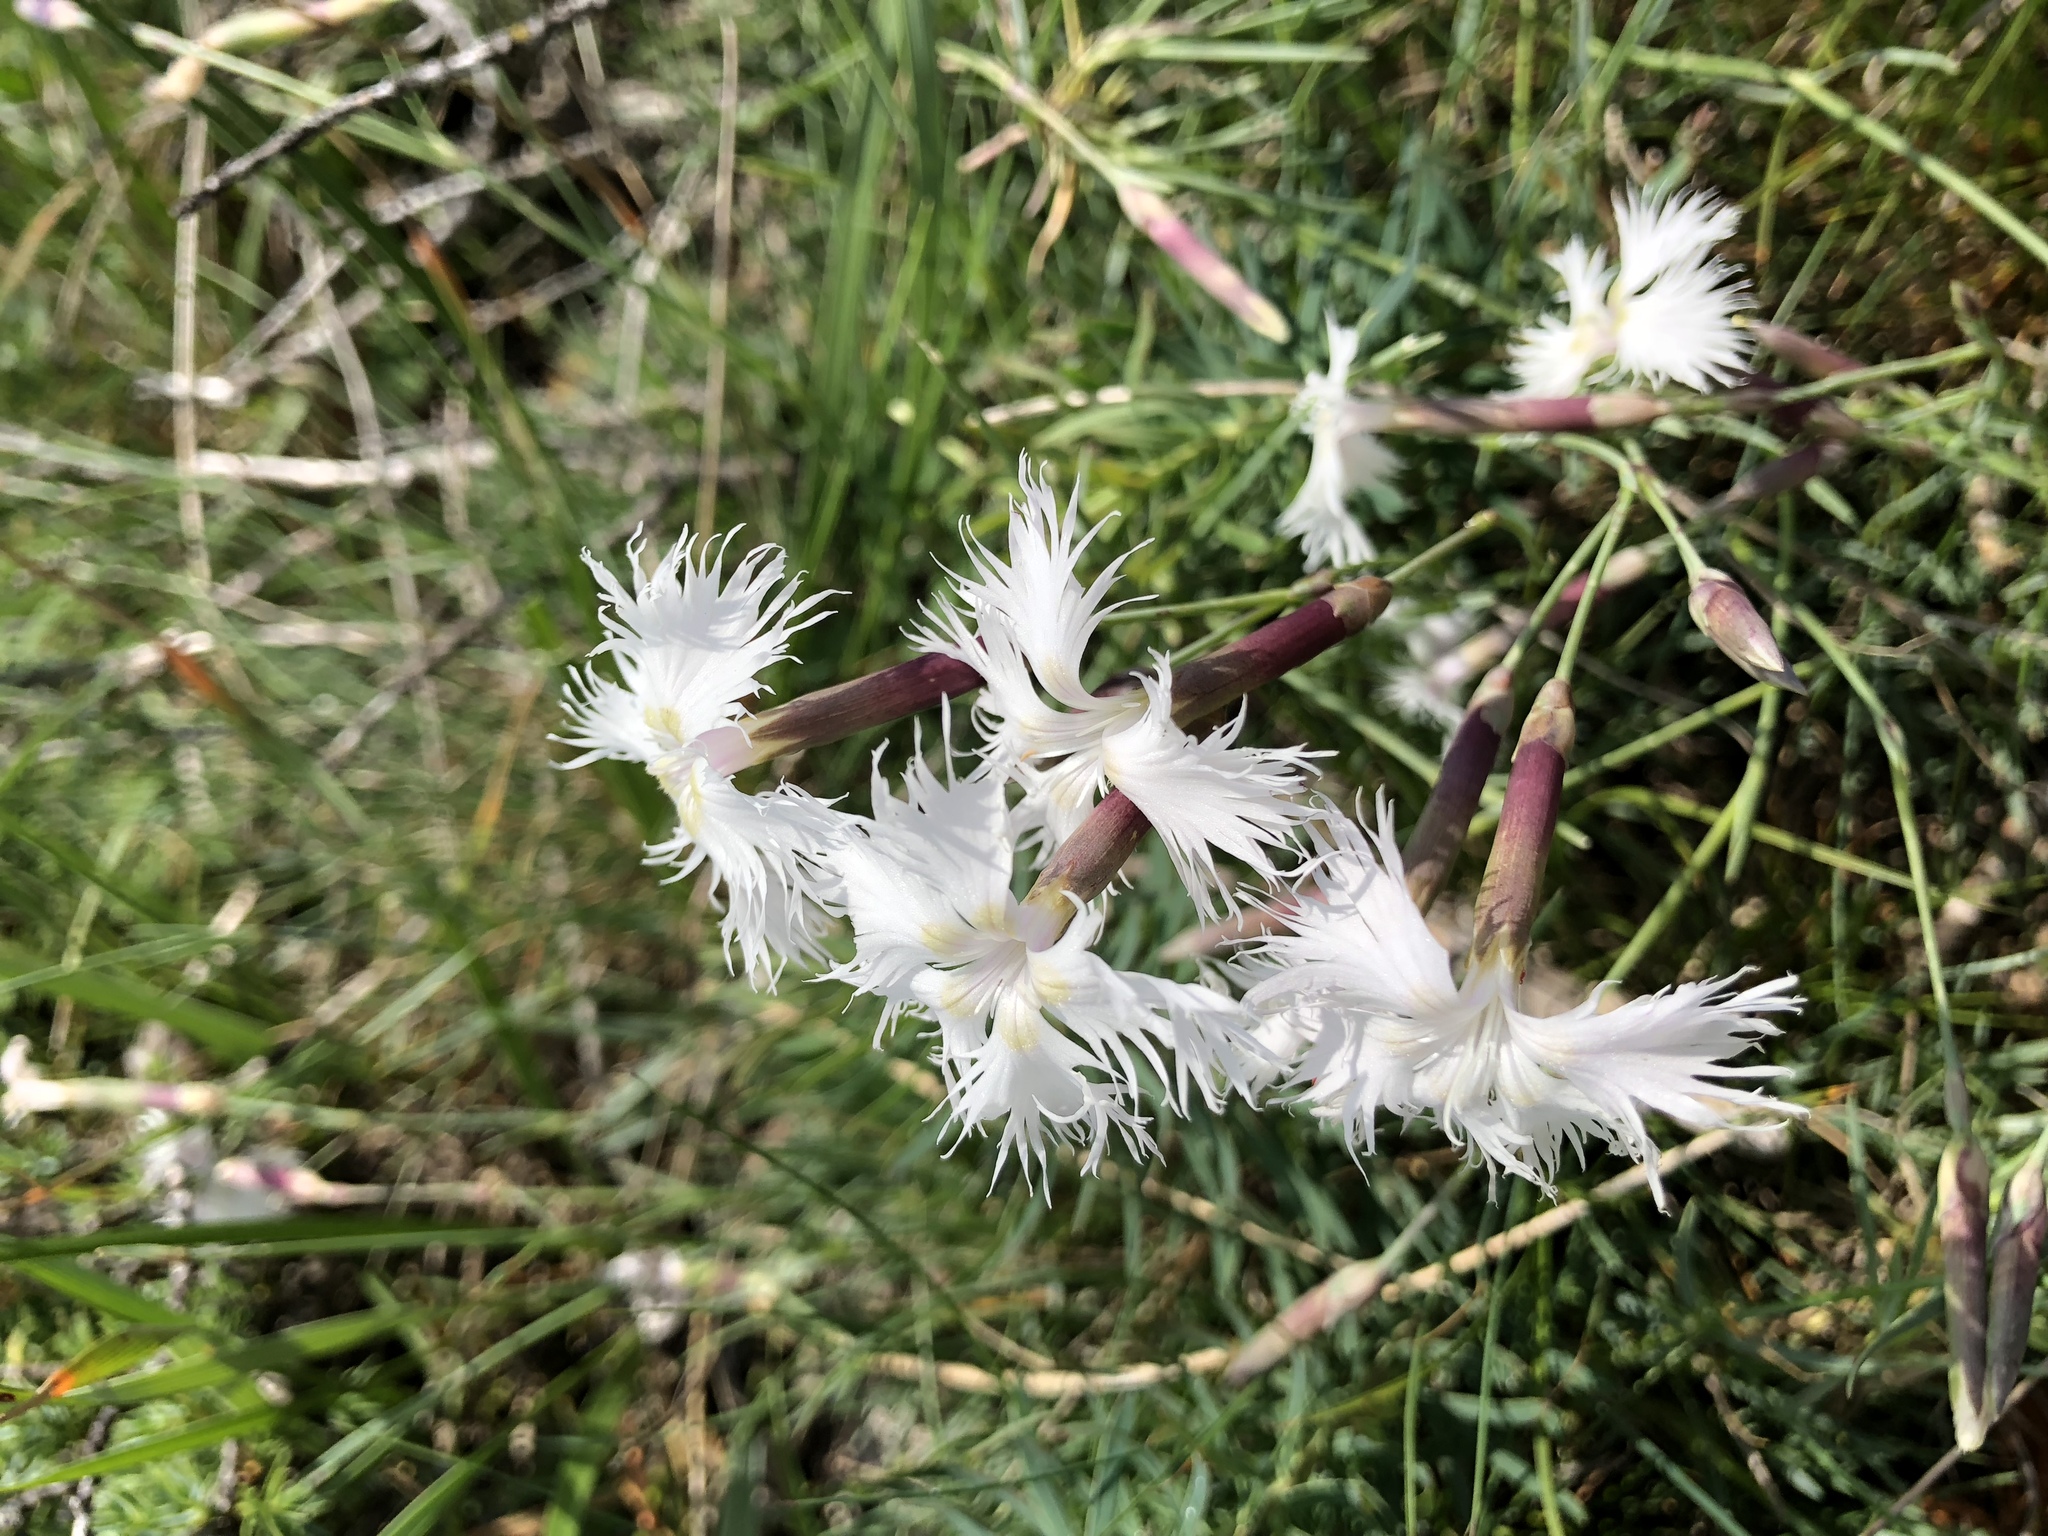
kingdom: Plantae
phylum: Tracheophyta
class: Magnoliopsida
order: Caryophyllales
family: Caryophyllaceae
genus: Dianthus
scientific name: Dianthus spiculifolius
